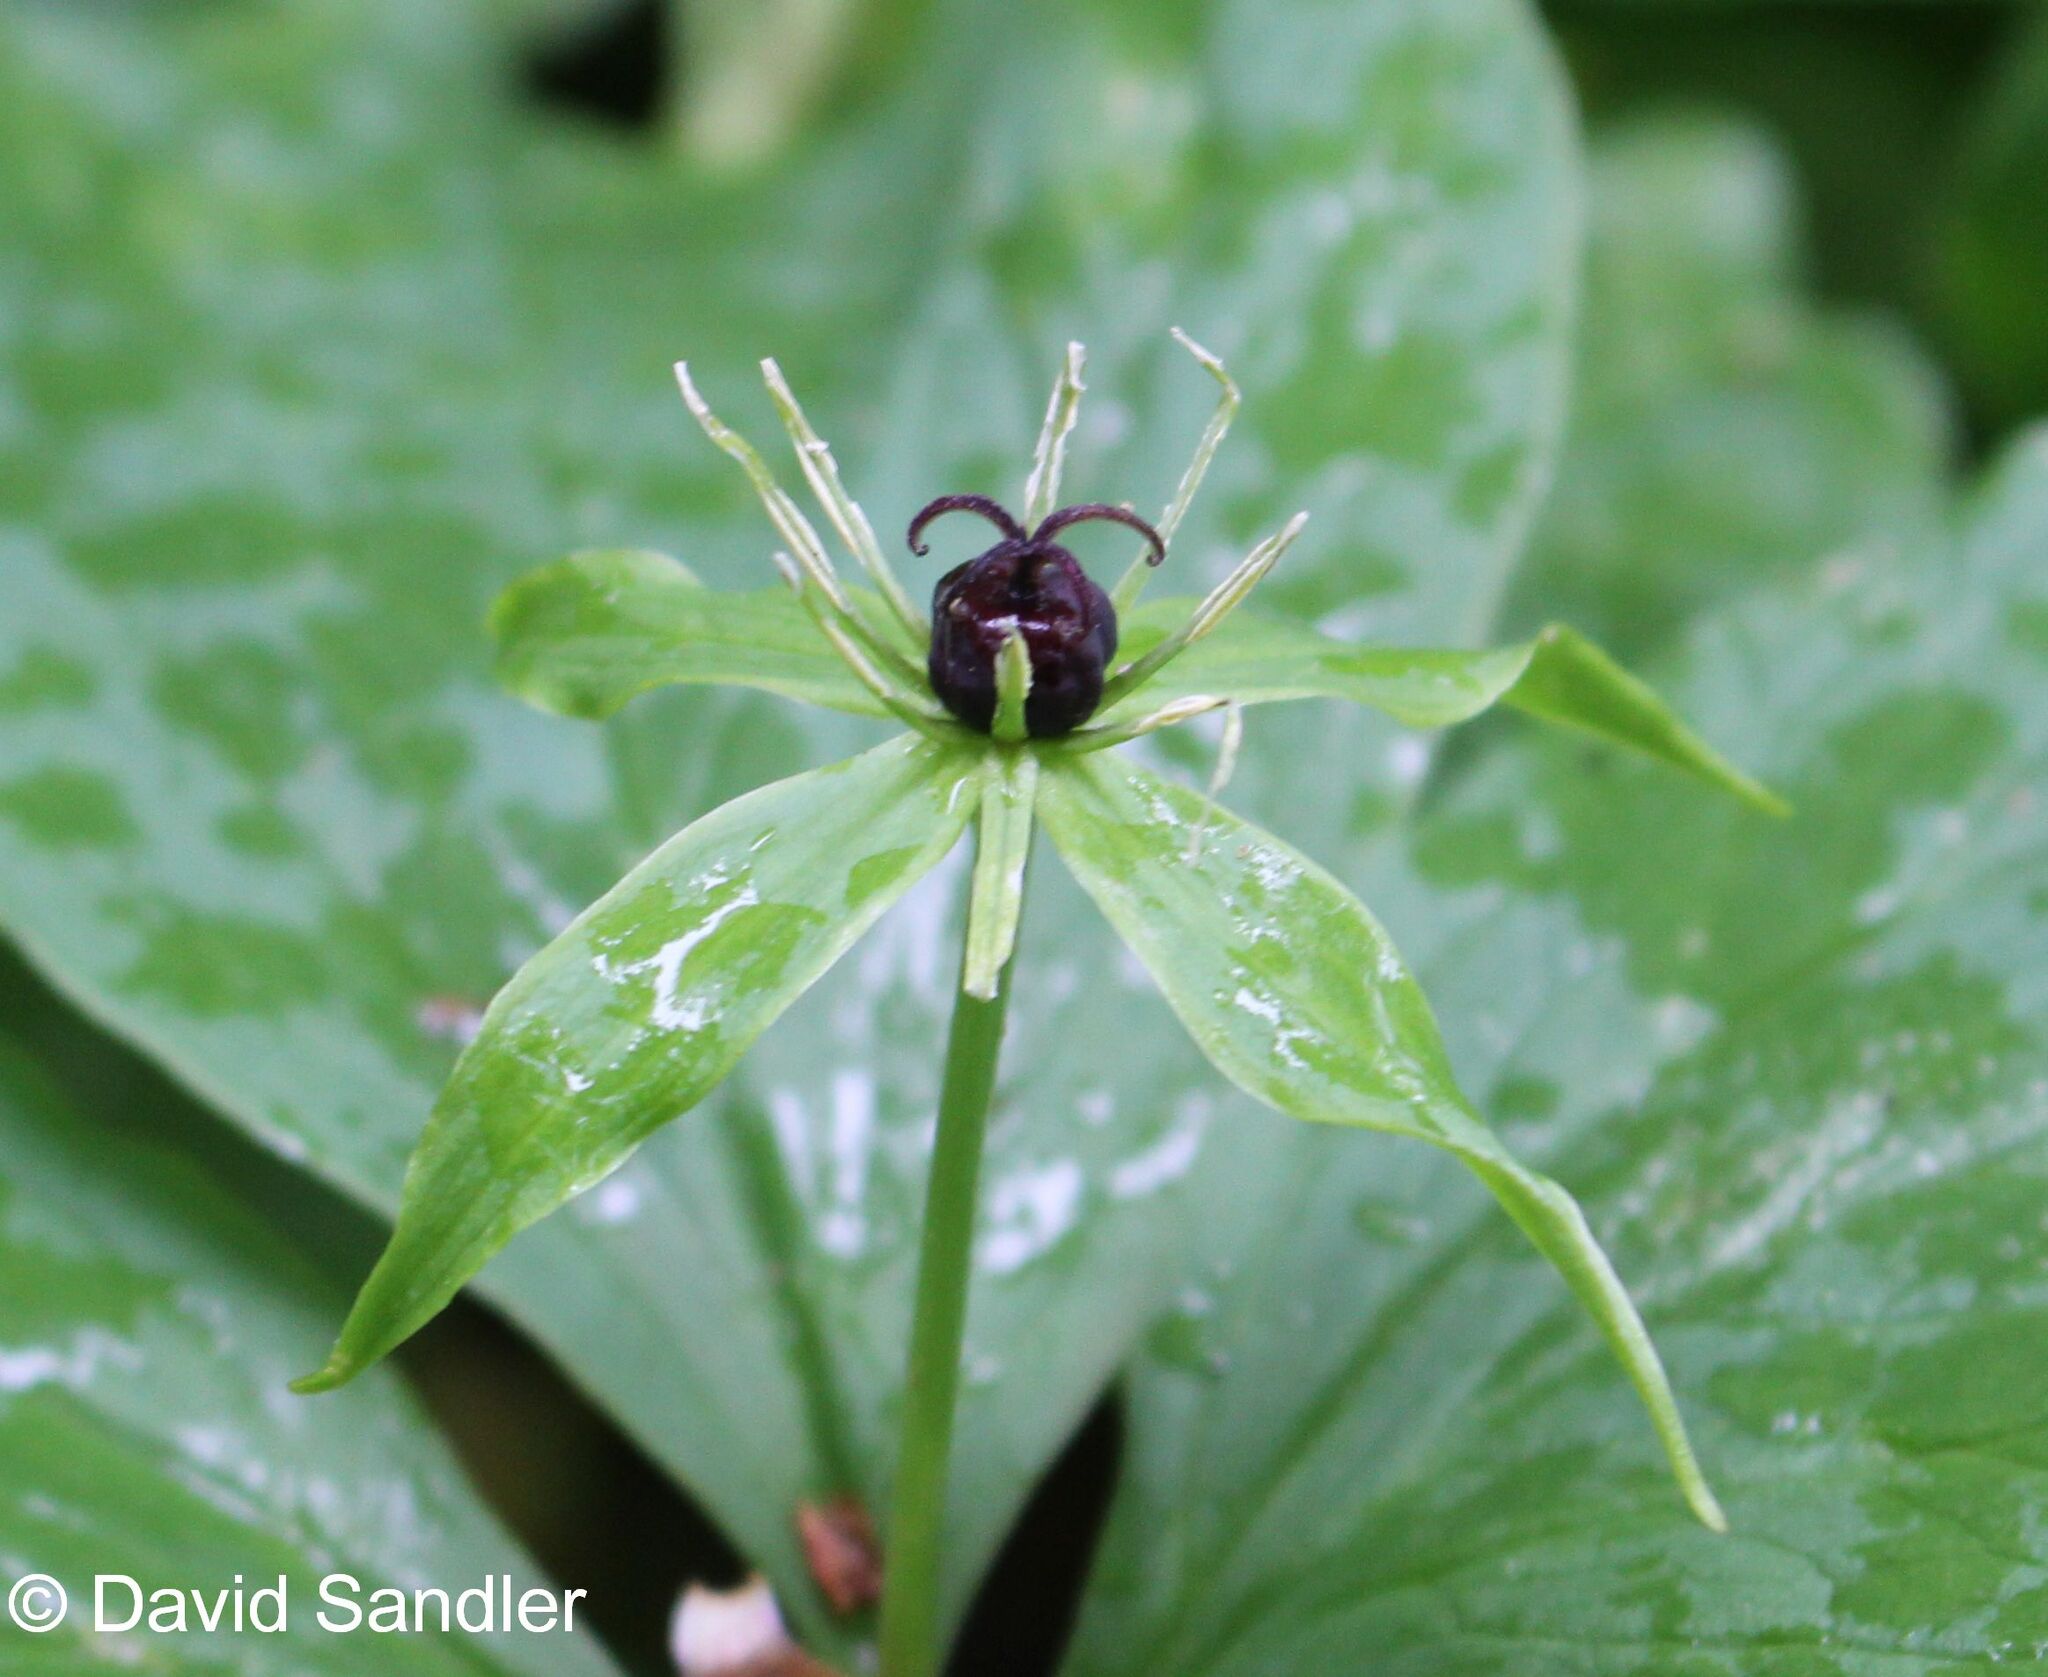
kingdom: Plantae
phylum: Tracheophyta
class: Liliopsida
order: Liliales
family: Melanthiaceae
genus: Paris
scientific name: Paris quadrifolia
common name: Herb-paris
